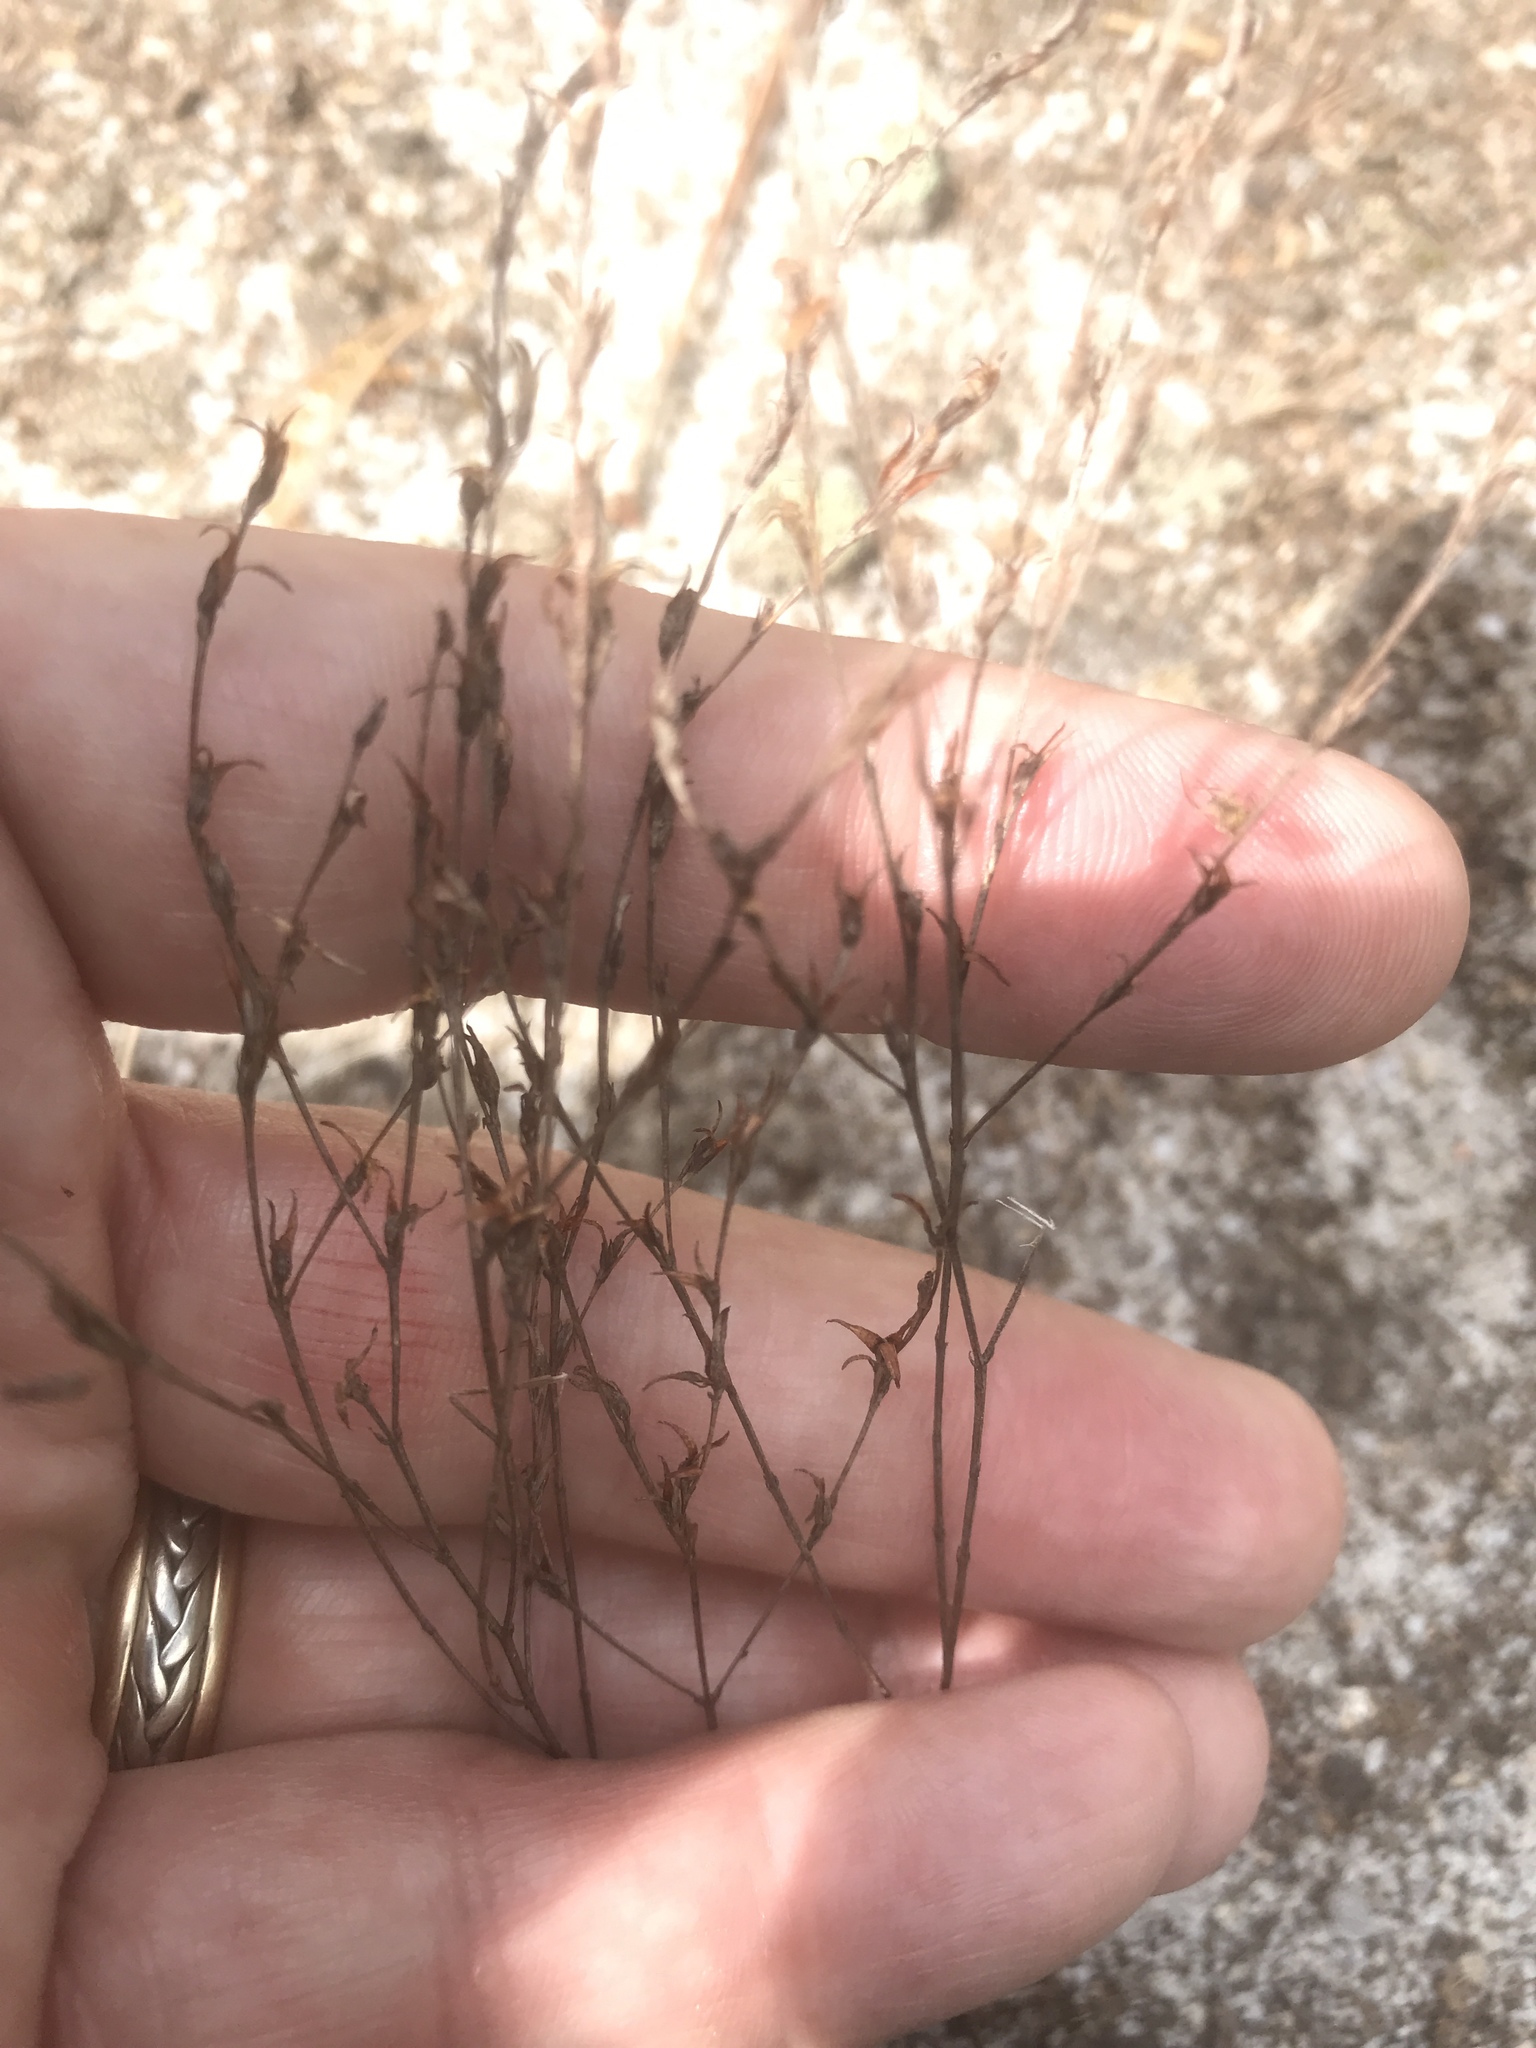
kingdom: Plantae
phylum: Tracheophyta
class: Magnoliopsida
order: Malpighiales
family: Hypericaceae
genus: Hypericum
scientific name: Hypericum gentianoides
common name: Gentian-leaved st. john's-wort
